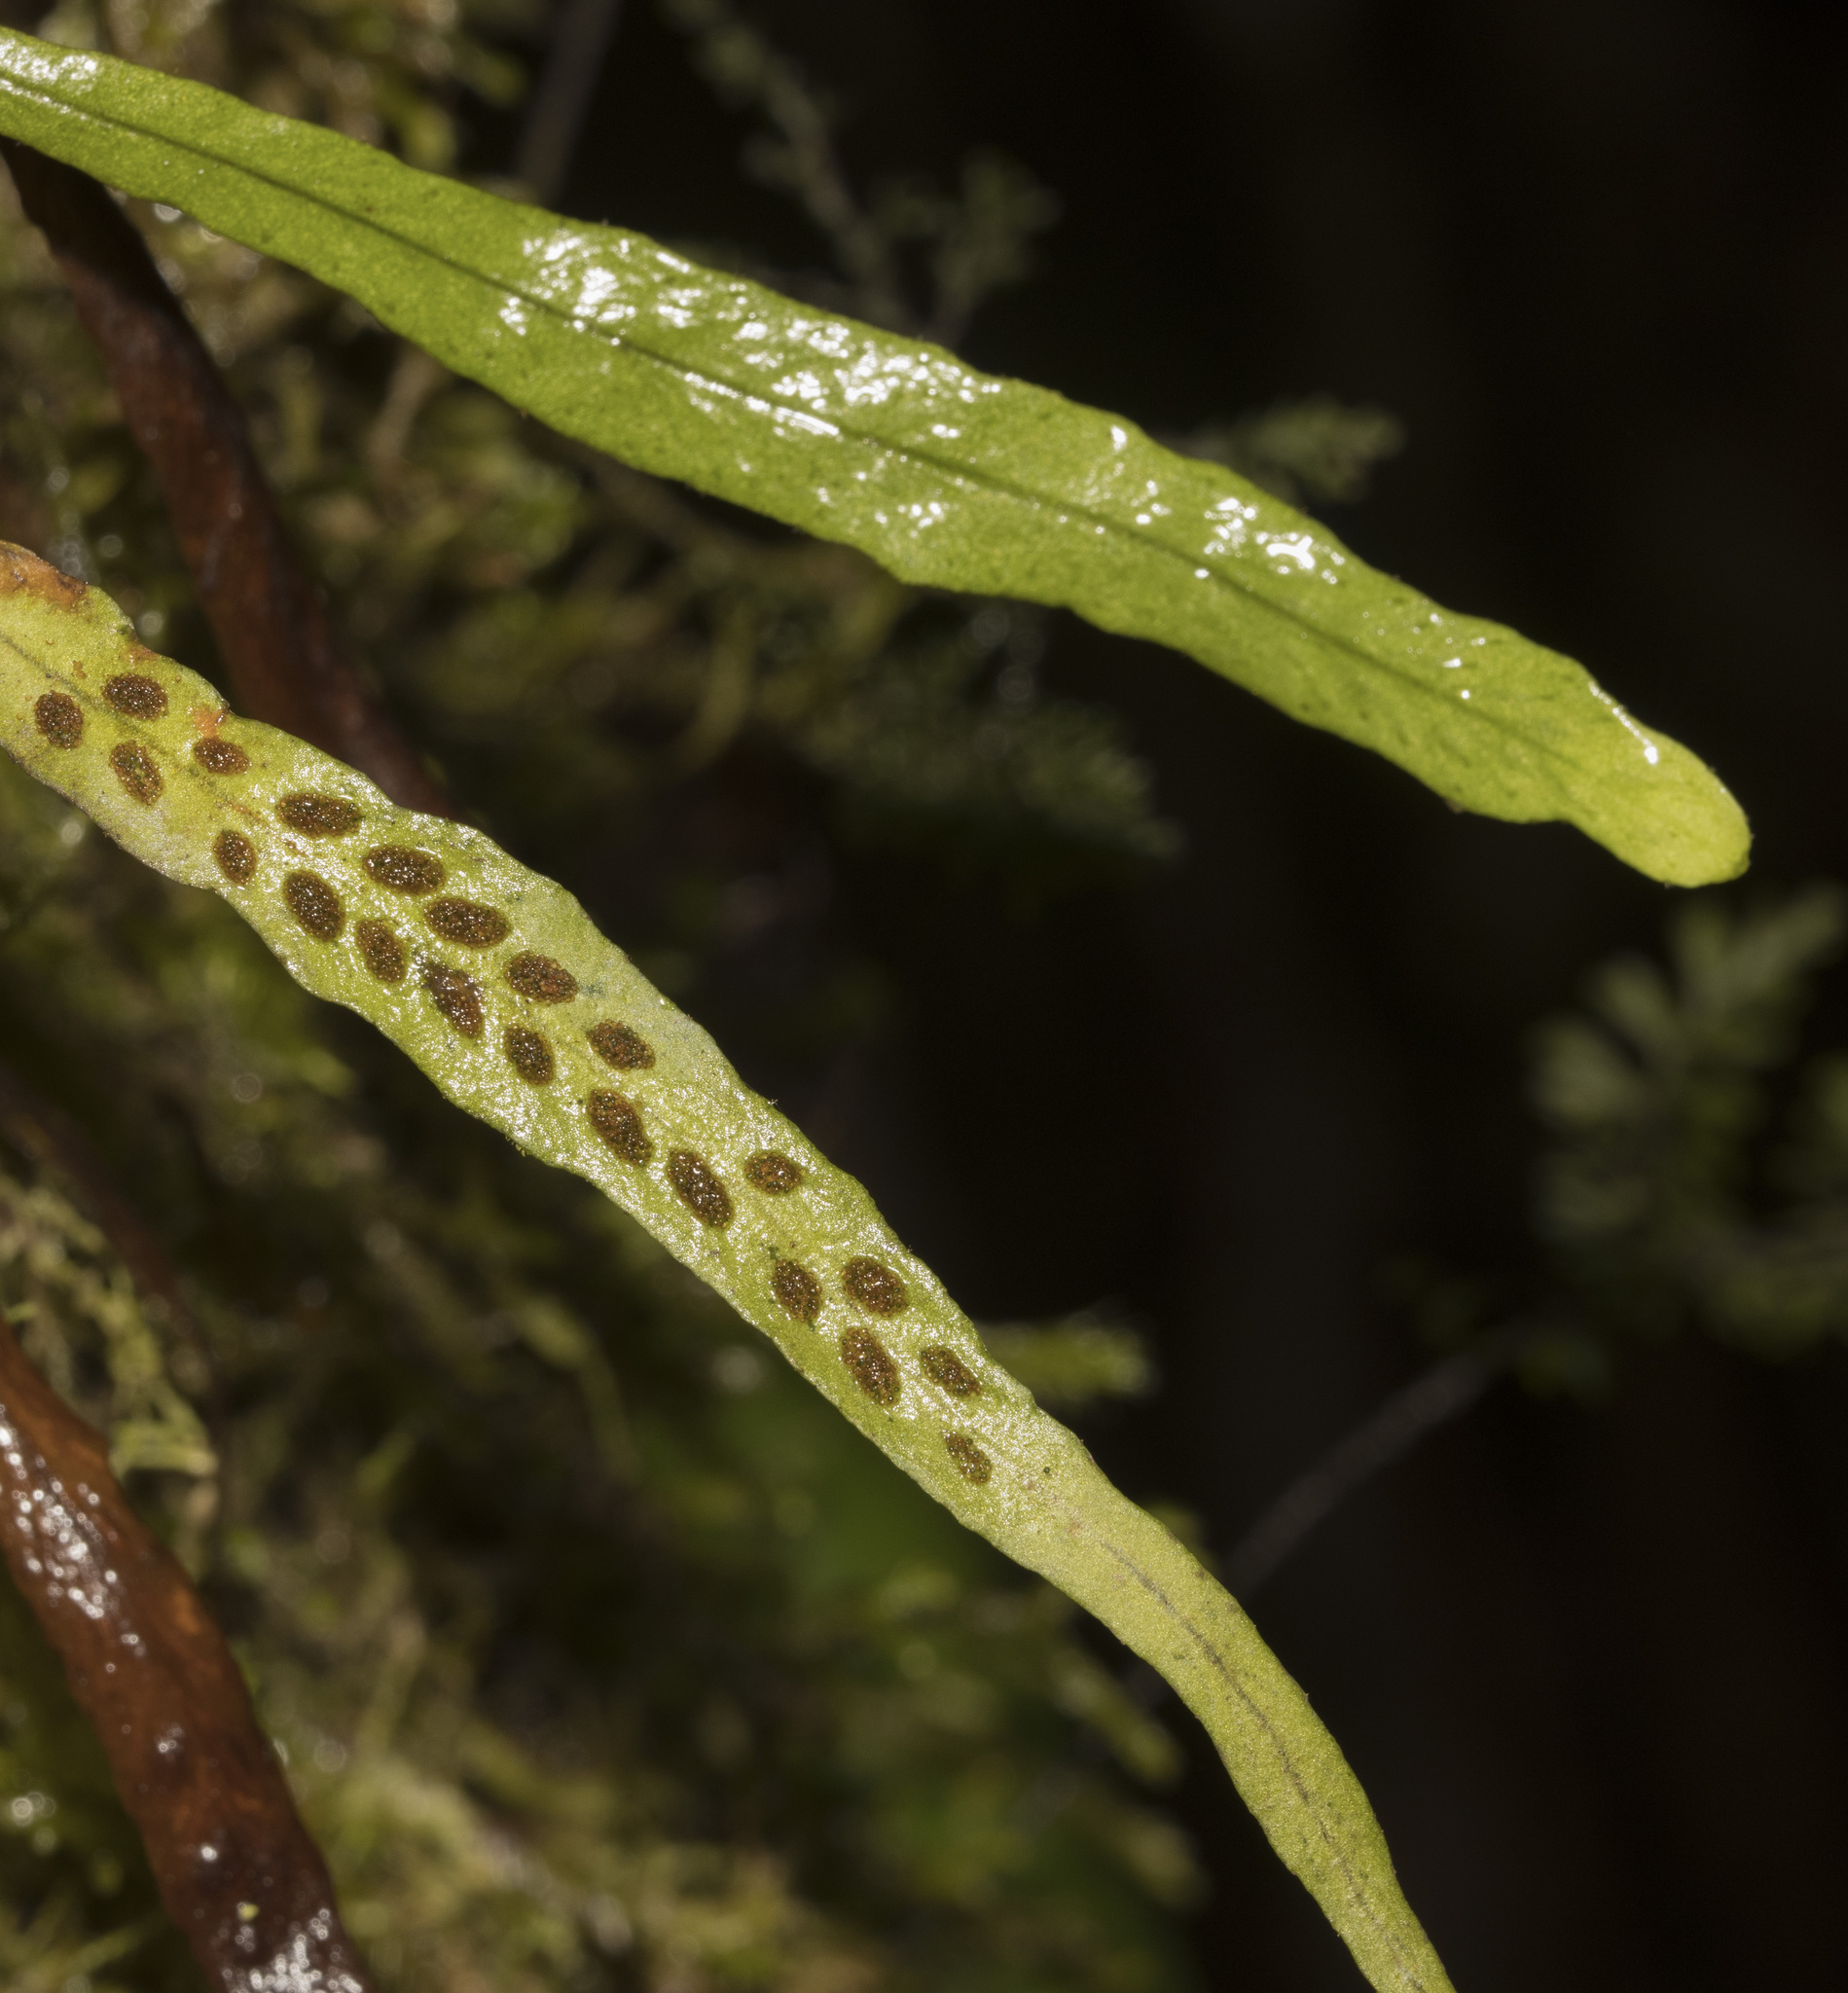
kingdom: Plantae
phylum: Tracheophyta
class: Polypodiopsida
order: Polypodiales
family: Polypodiaceae
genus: Notogrammitis
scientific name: Notogrammitis angustifolia
